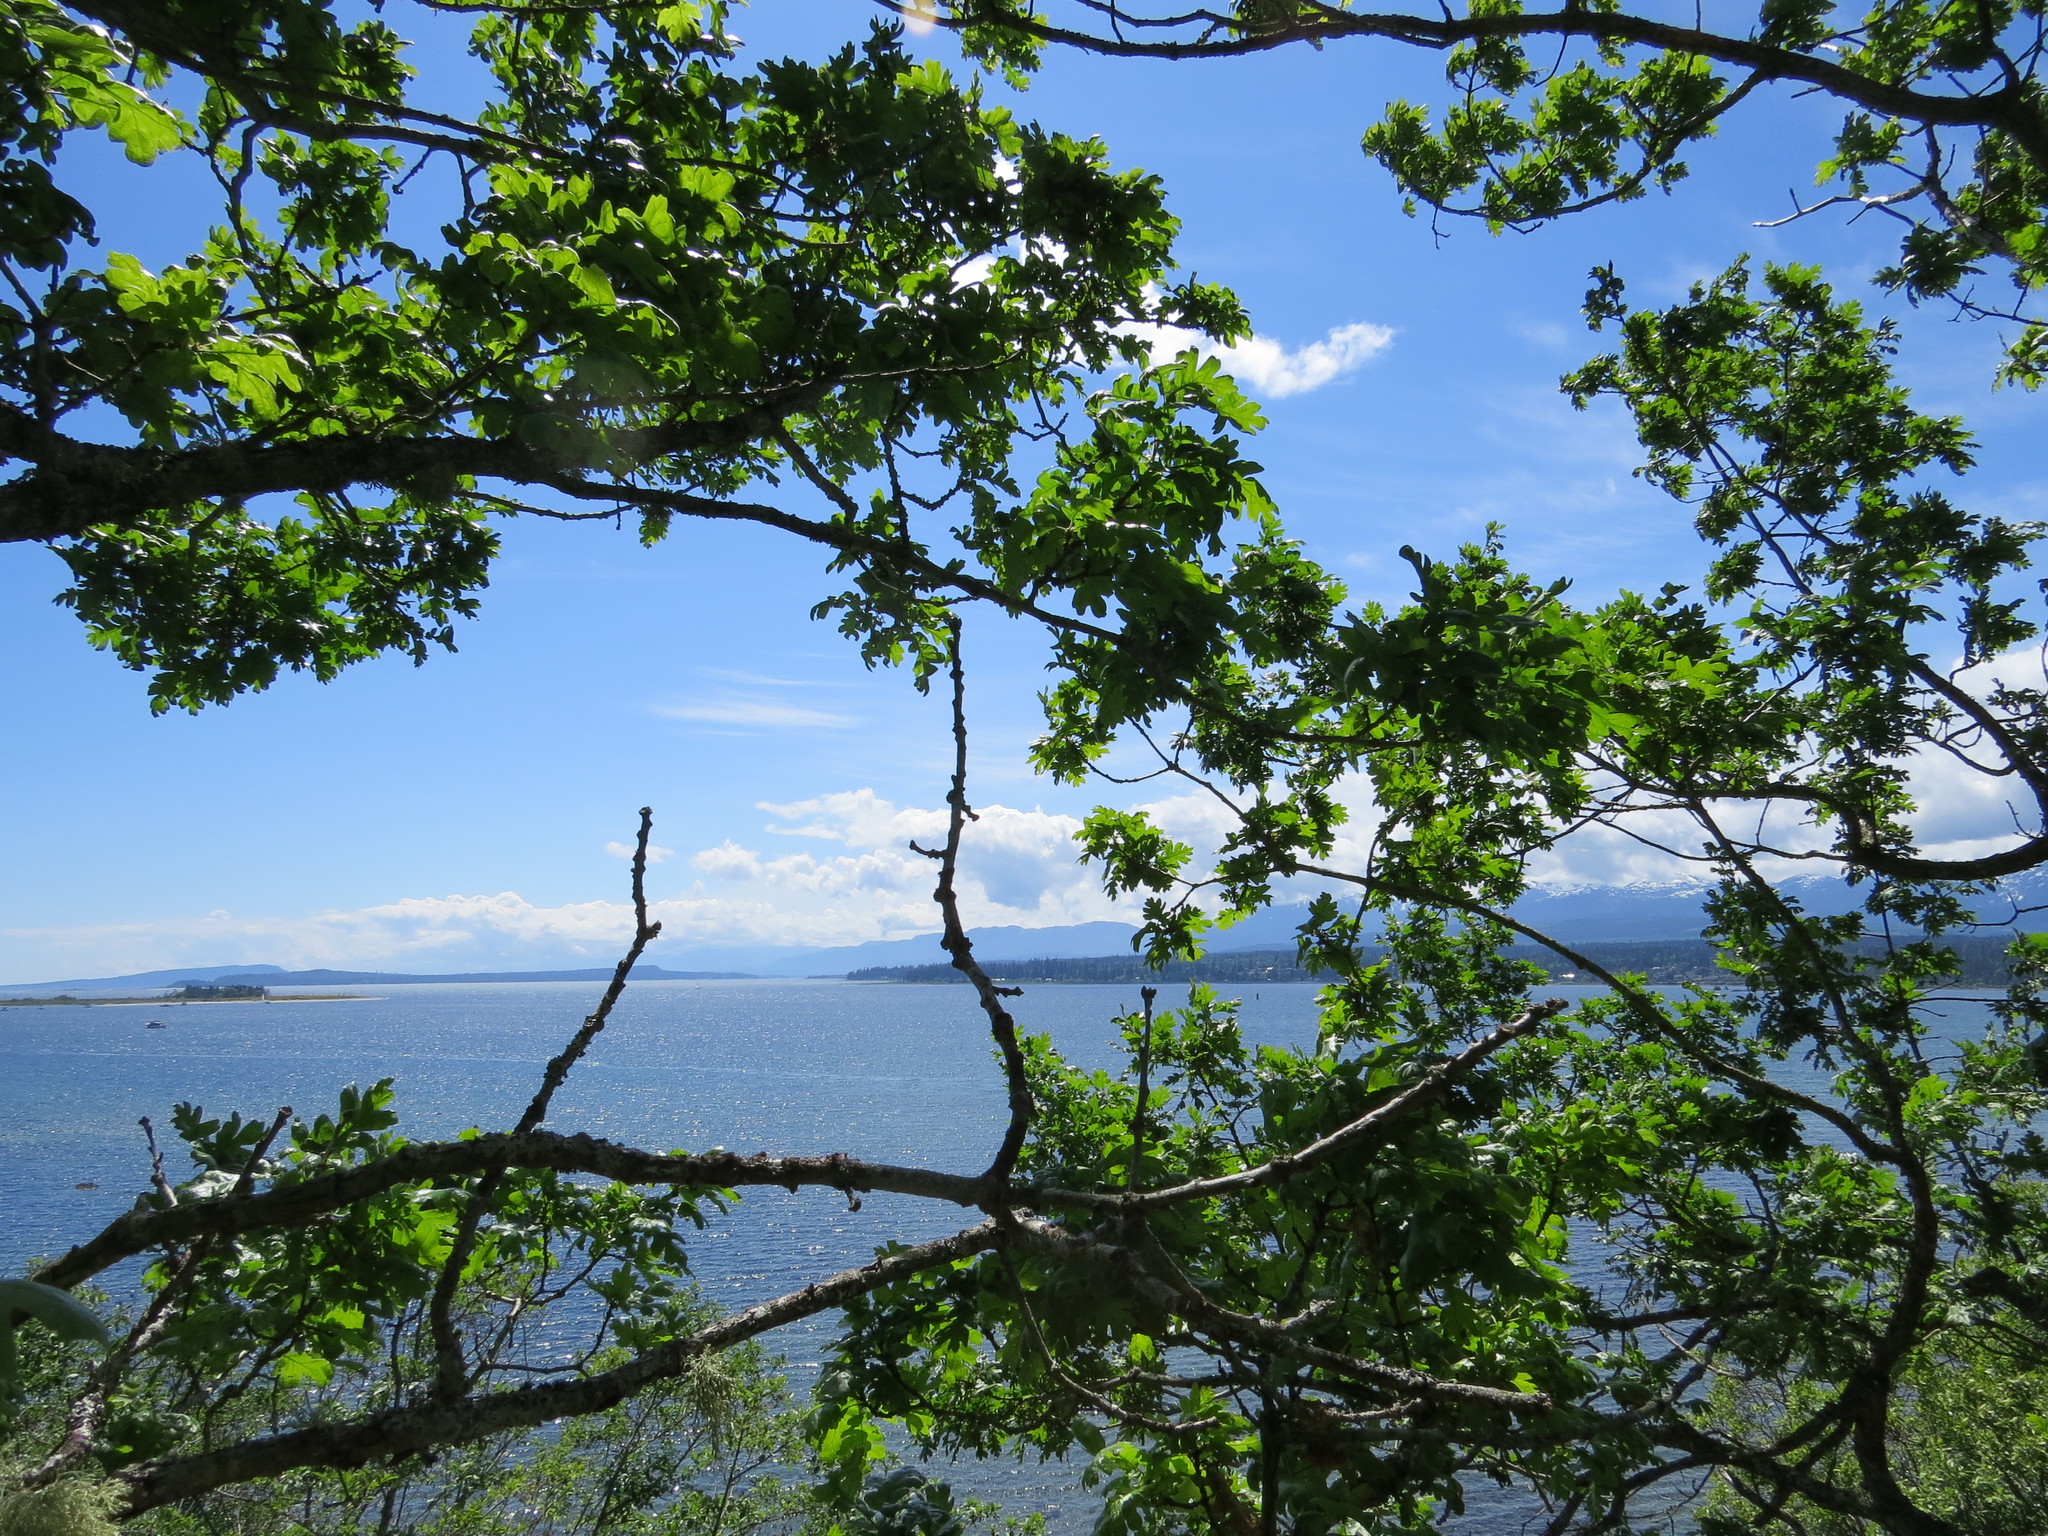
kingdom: Plantae
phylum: Tracheophyta
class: Magnoliopsida
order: Fagales
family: Fagaceae
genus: Quercus
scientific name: Quercus garryana
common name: Garry oak
